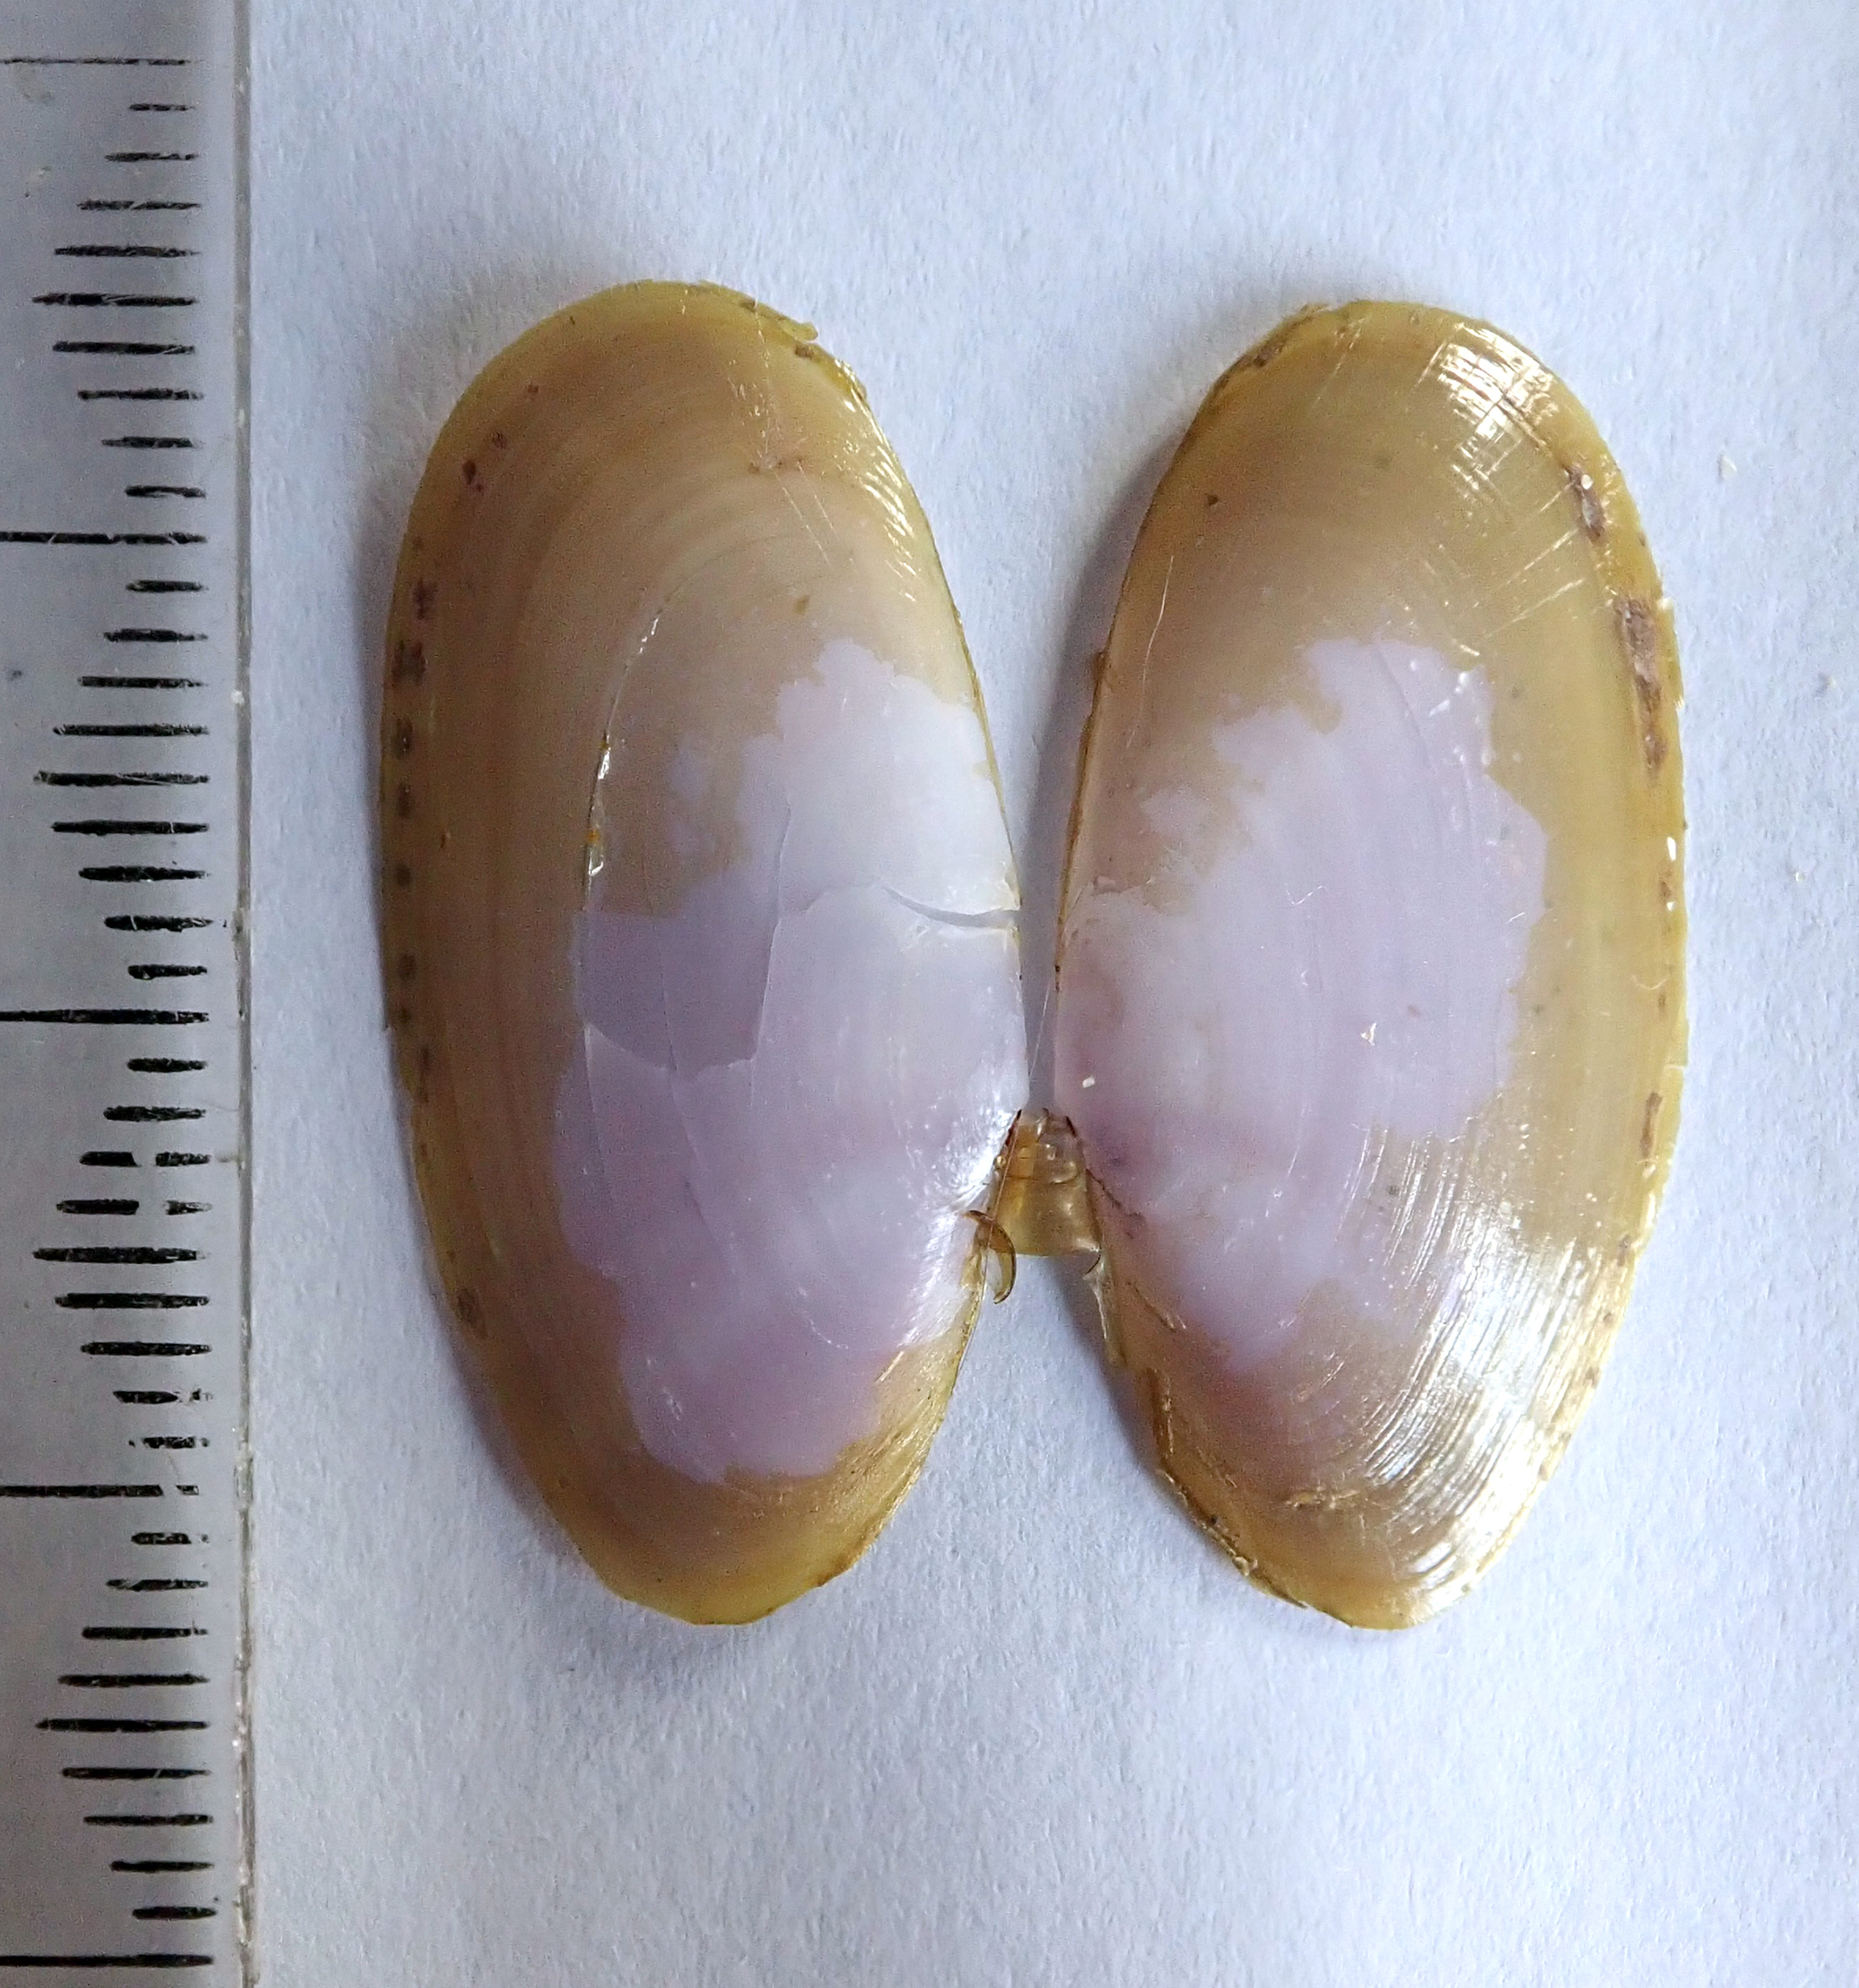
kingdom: Animalia
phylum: Mollusca
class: Bivalvia
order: Cardiida
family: Psammobiidae
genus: Hiatula
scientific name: Hiatula nitida
